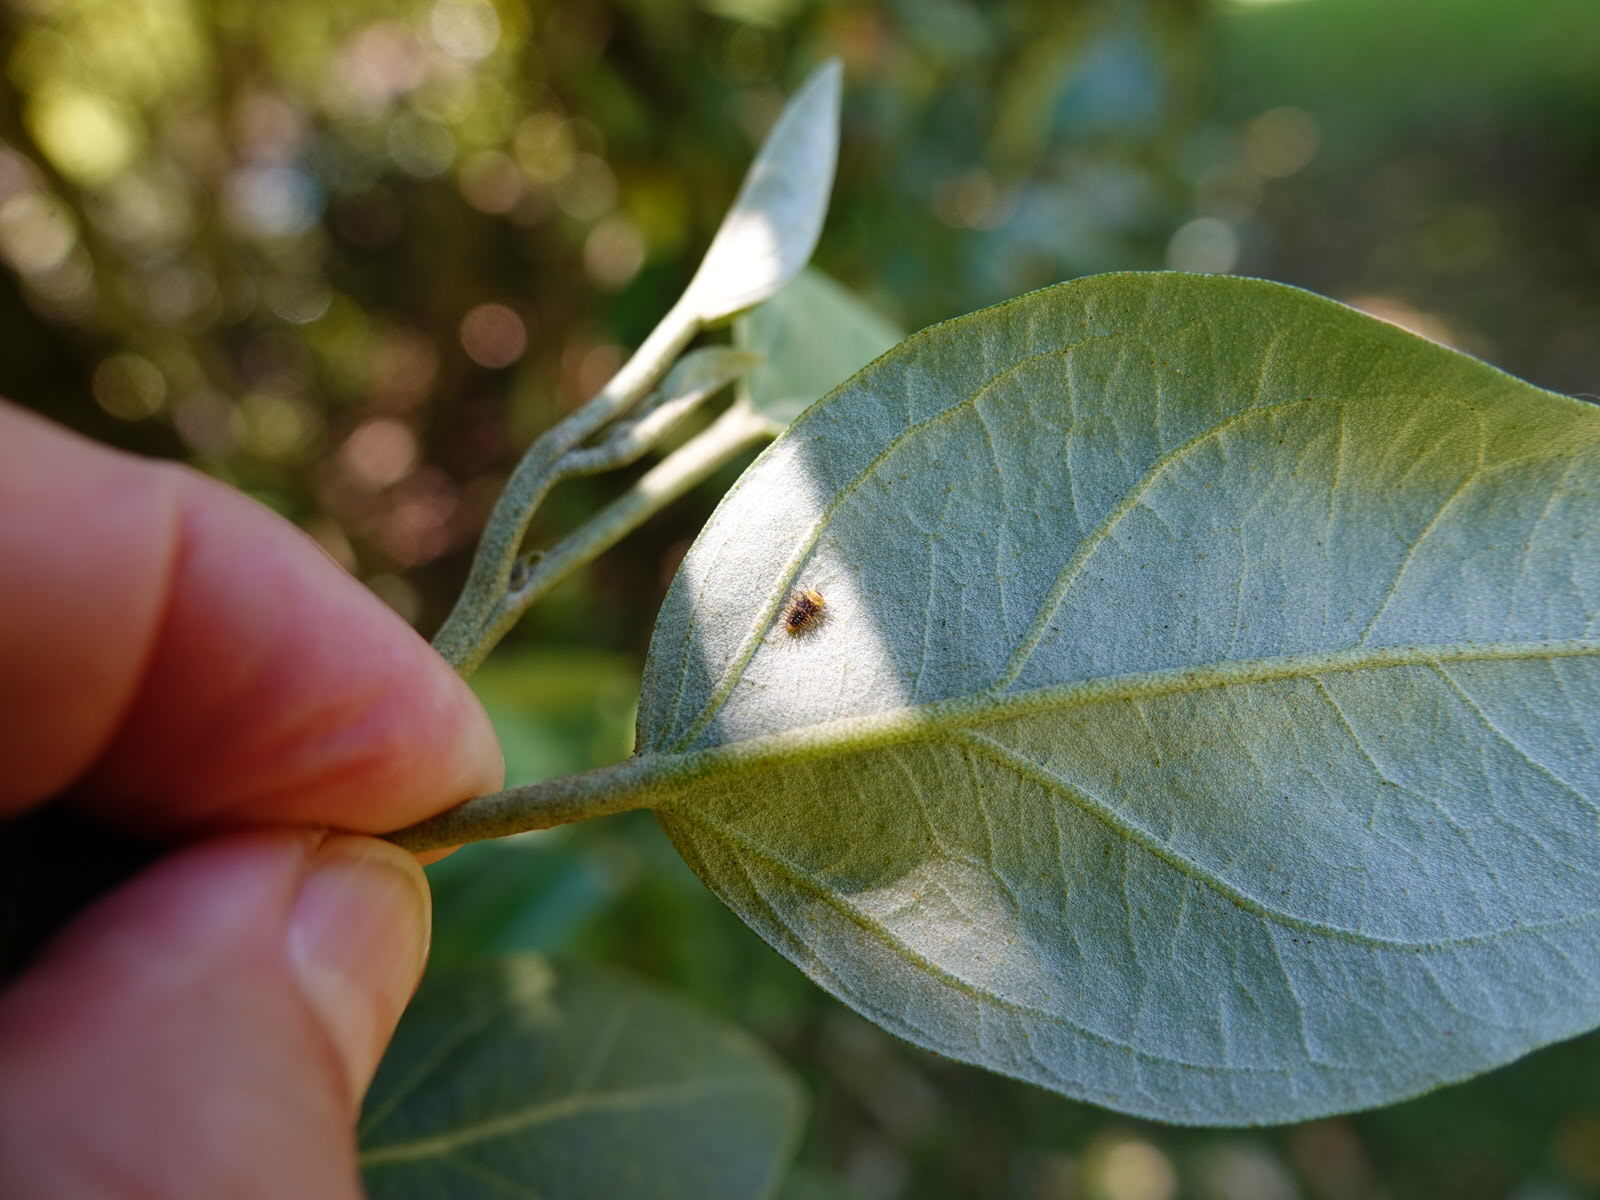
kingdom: Animalia
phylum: Arthropoda
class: Insecta
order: Coleoptera
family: Coccinellidae
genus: Halmus
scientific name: Halmus chalybeus
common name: Steel blue ladybird beetle
